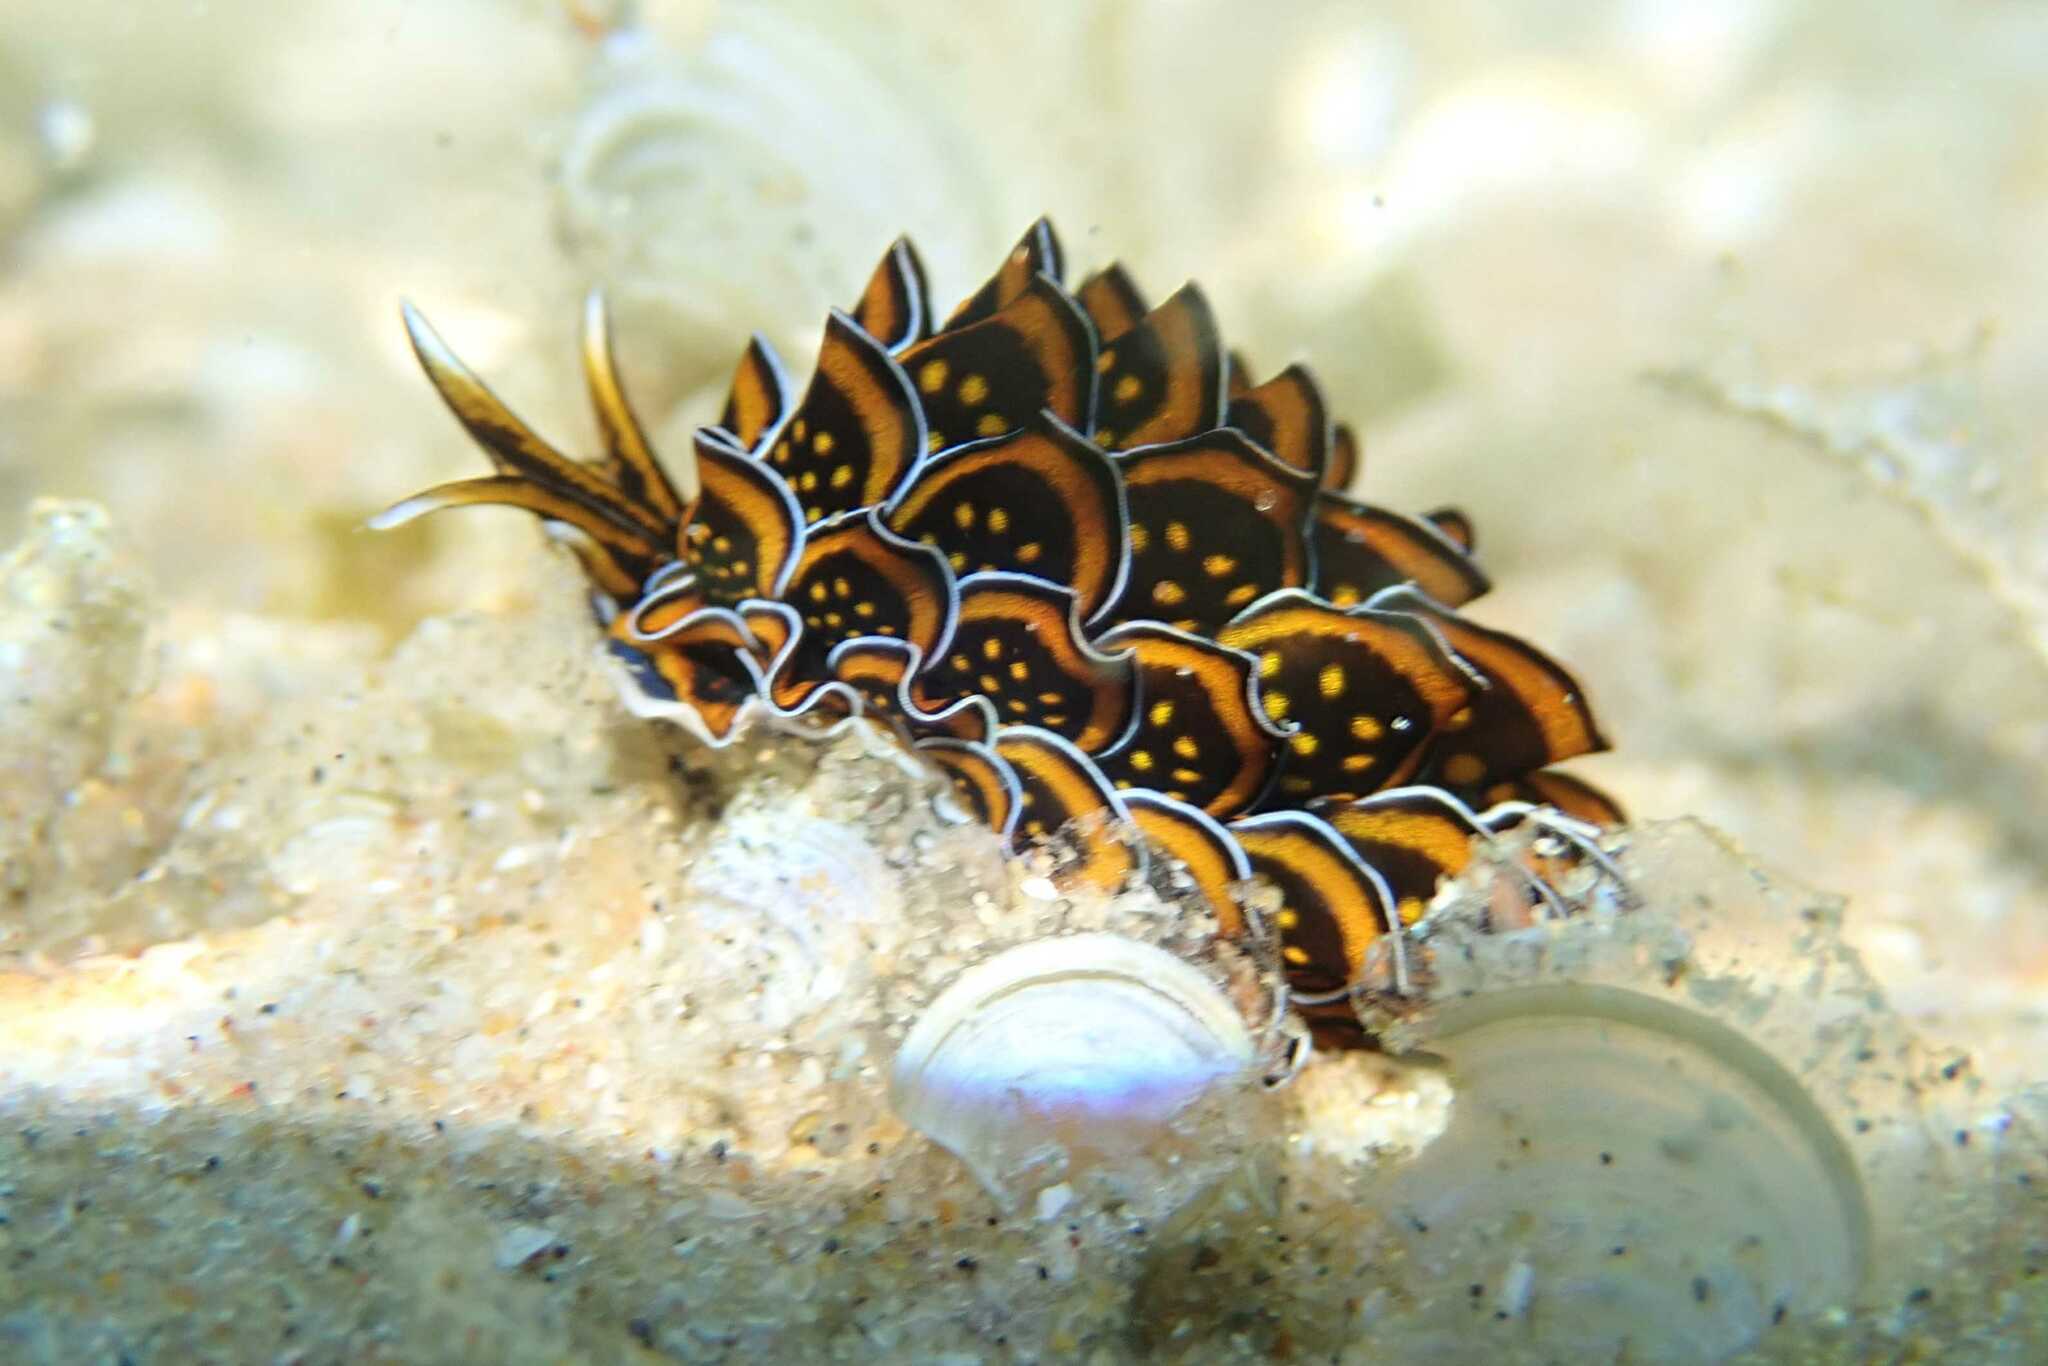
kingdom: Animalia
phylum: Mollusca
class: Gastropoda
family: Hermaeidae
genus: Cyerce
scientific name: Cyerce nigricans
